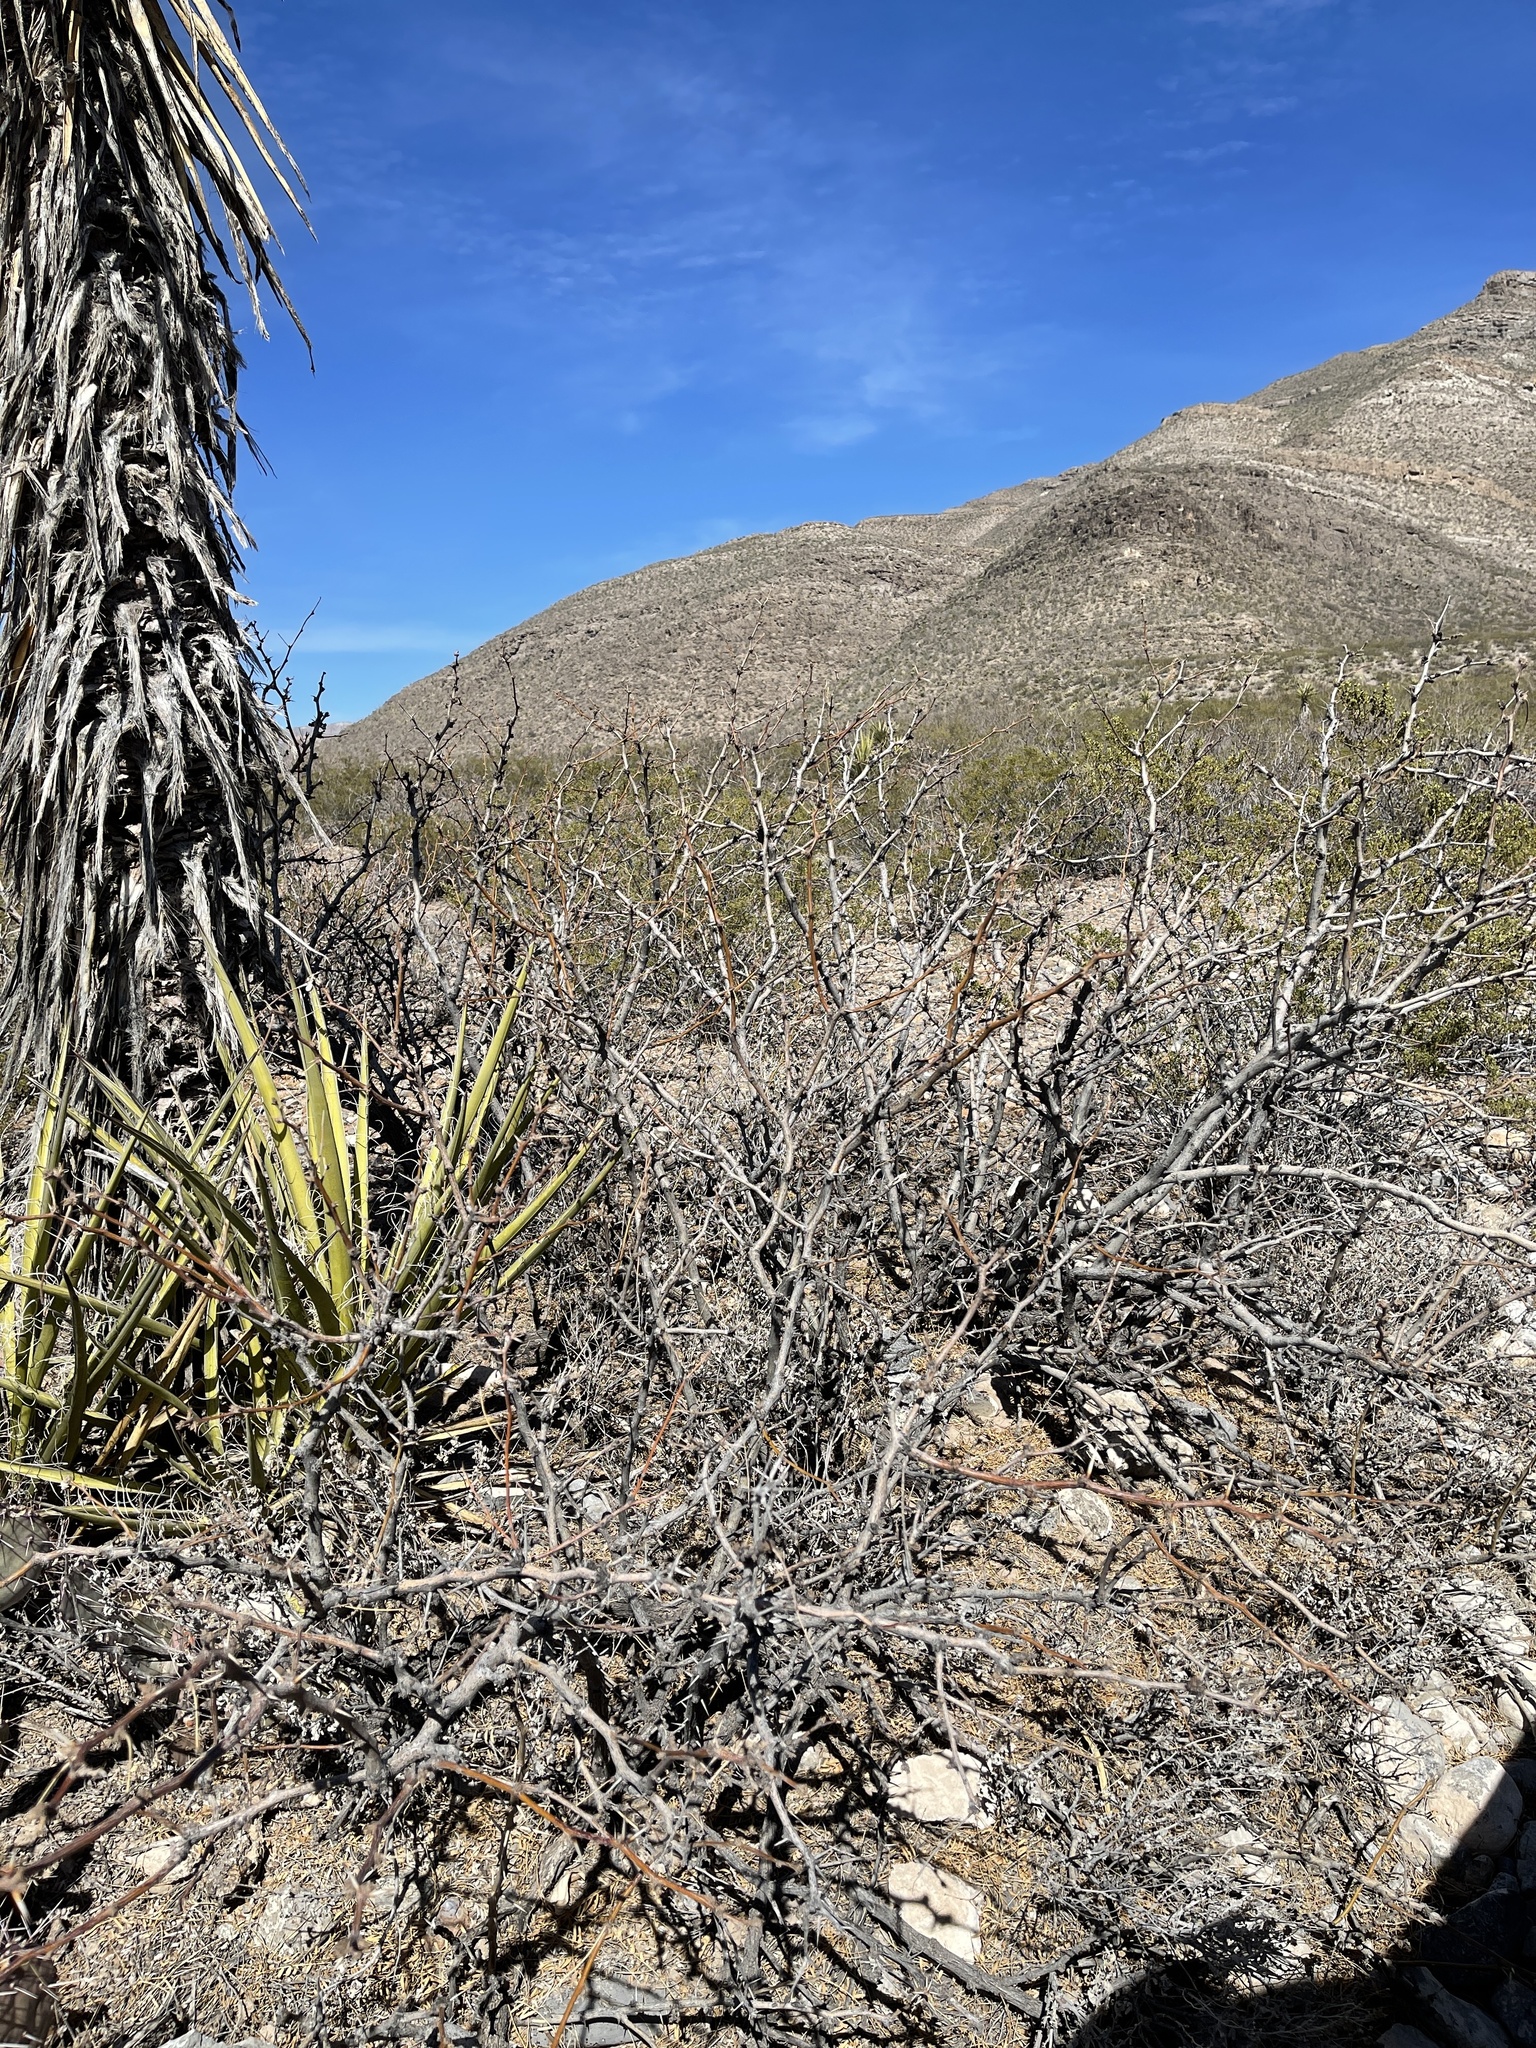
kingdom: Plantae
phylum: Tracheophyta
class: Magnoliopsida
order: Fabales
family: Fabaceae
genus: Prosopis
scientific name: Prosopis glandulosa
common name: Honey mesquite
